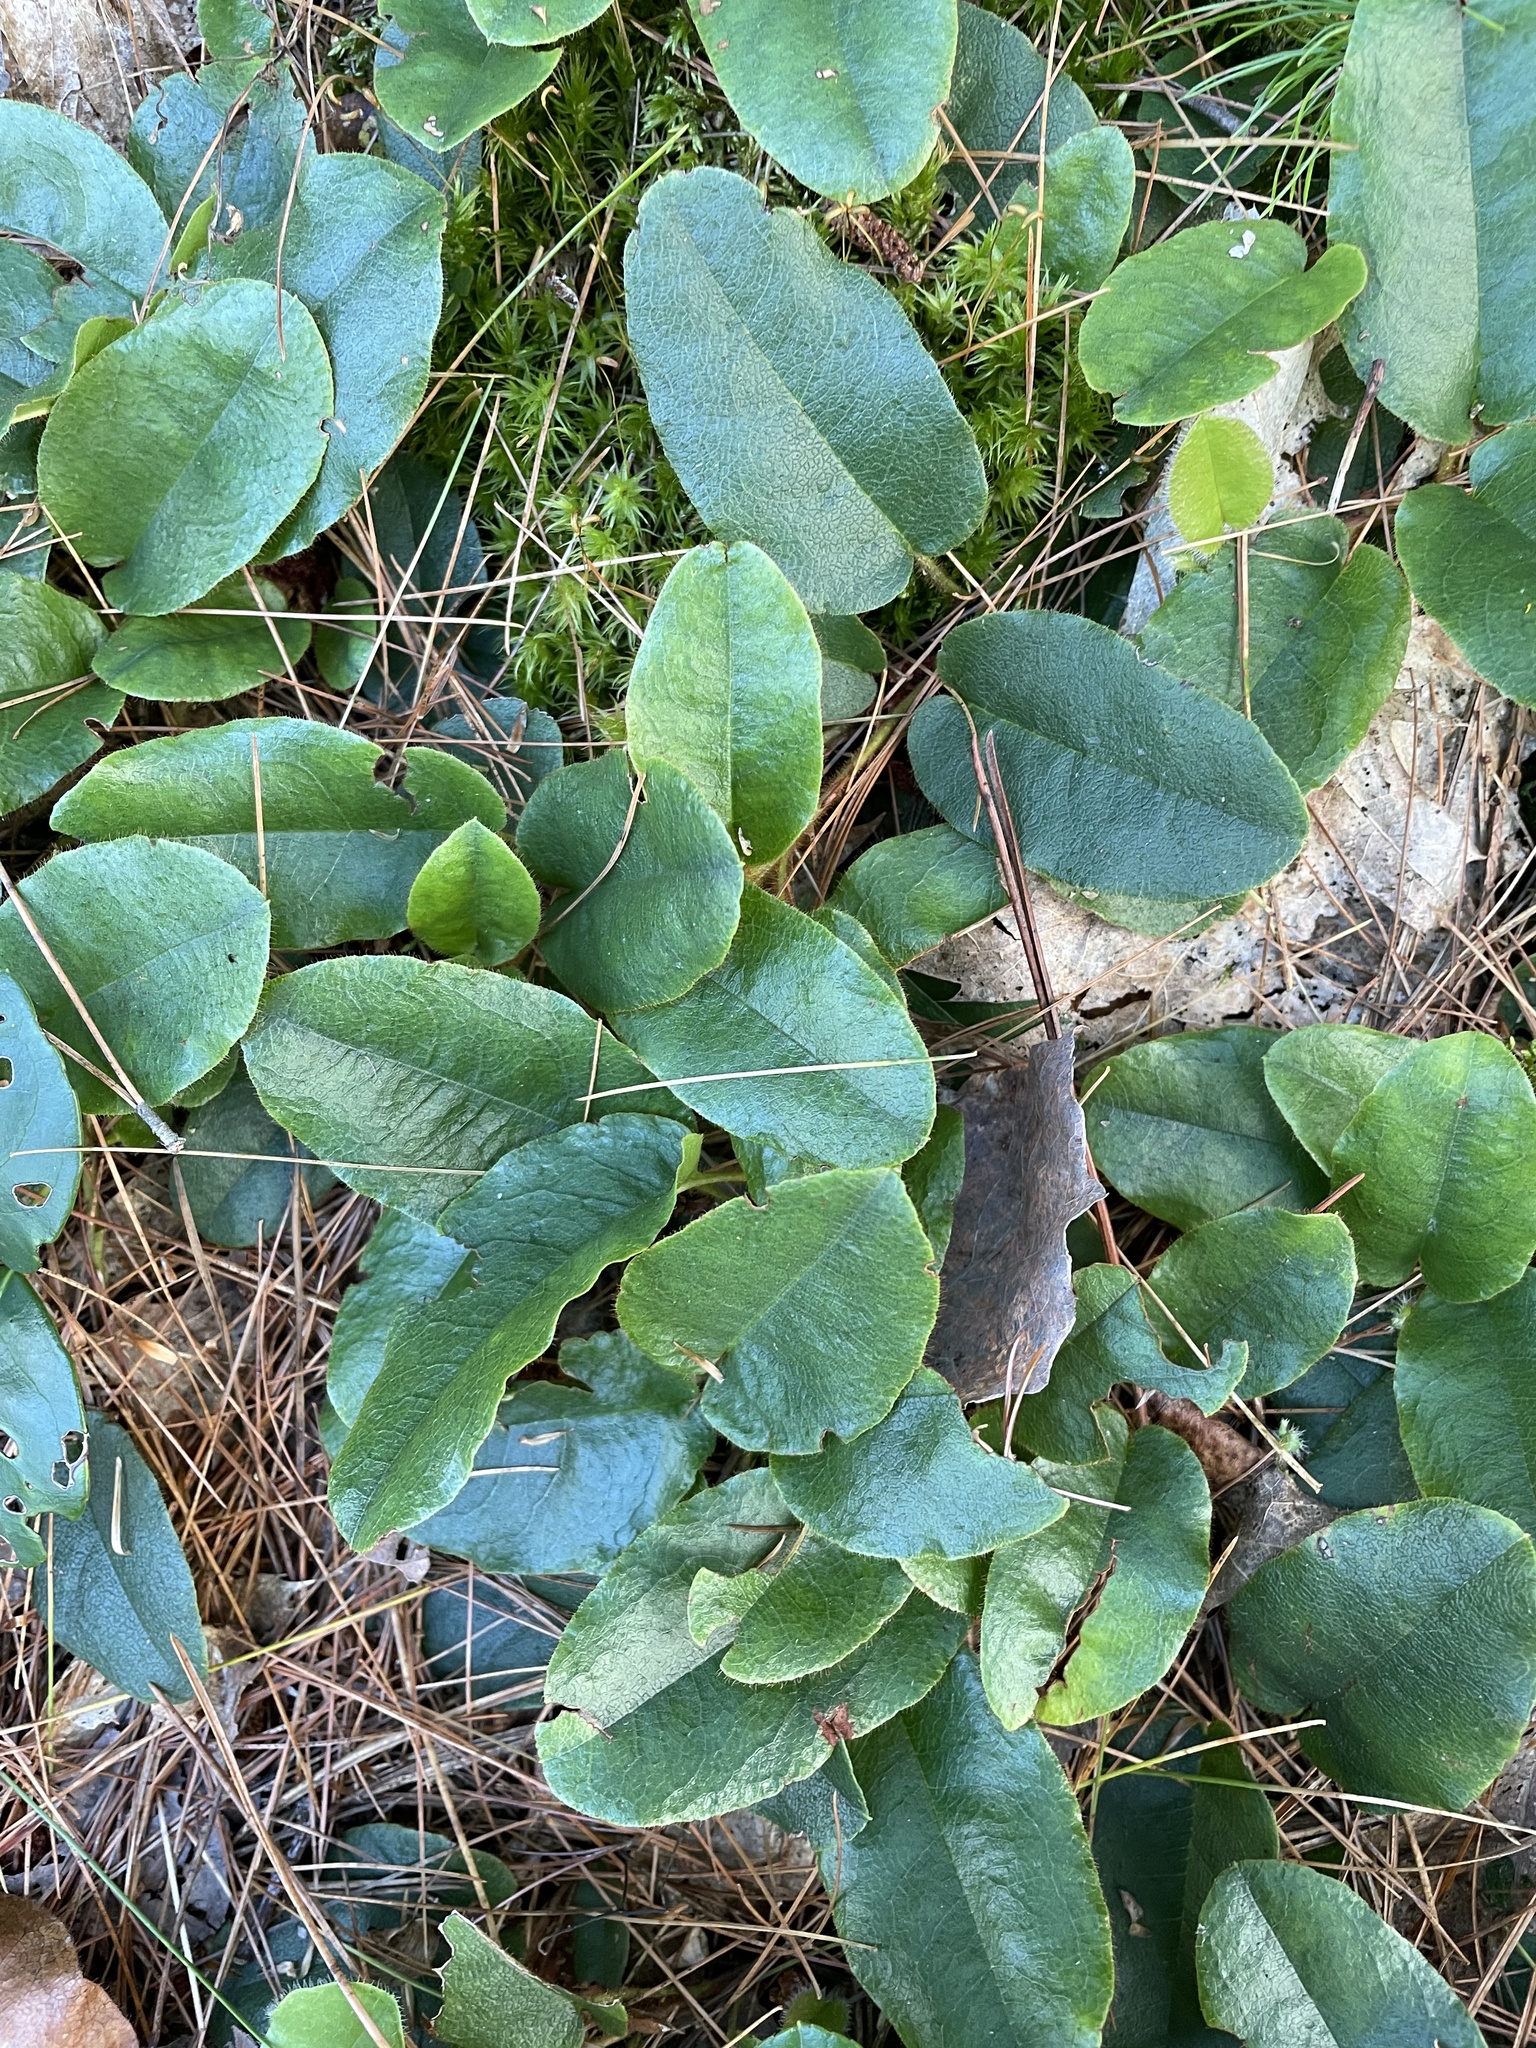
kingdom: Plantae
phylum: Tracheophyta
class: Magnoliopsida
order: Ericales
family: Ericaceae
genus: Epigaea
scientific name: Epigaea repens
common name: Gravelroot
